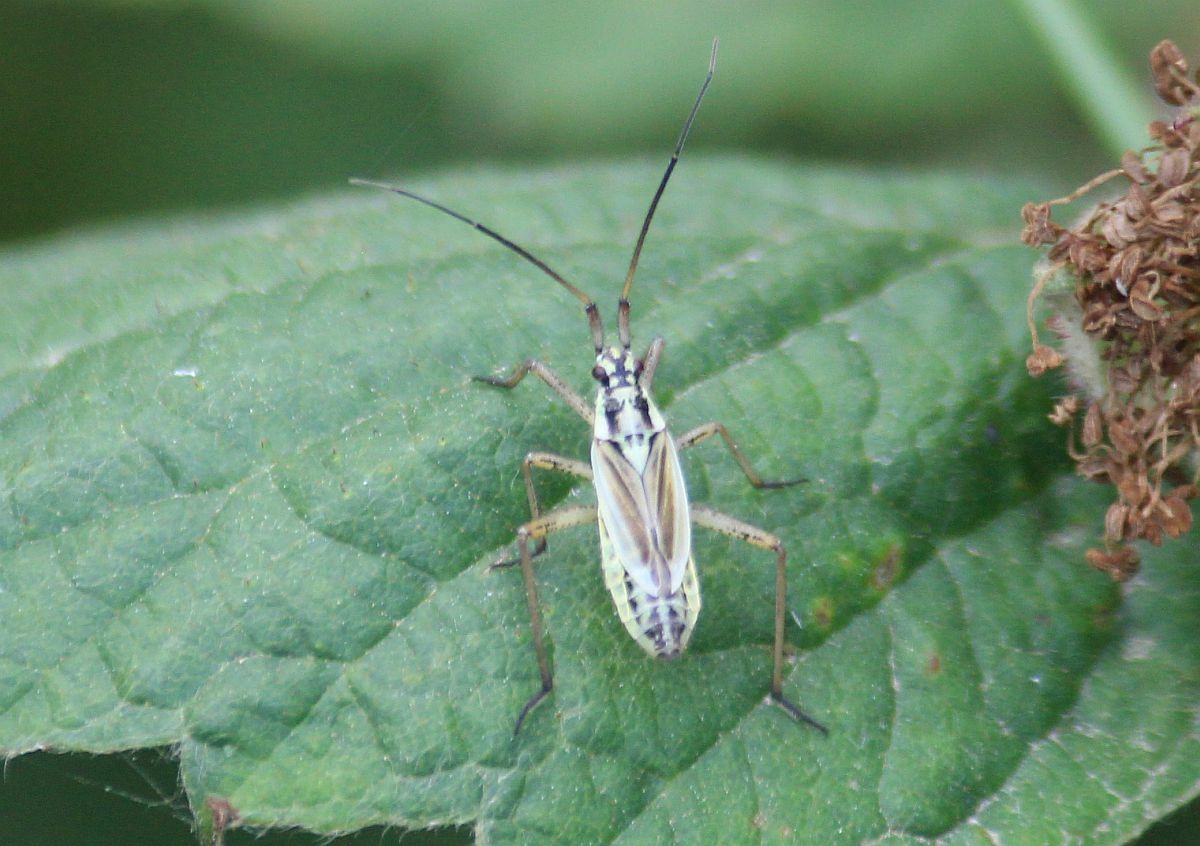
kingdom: Animalia
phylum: Arthropoda
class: Insecta
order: Hemiptera
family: Miridae
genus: Leptopterna
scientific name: Leptopterna dolabrata
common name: Meadow plant bug
